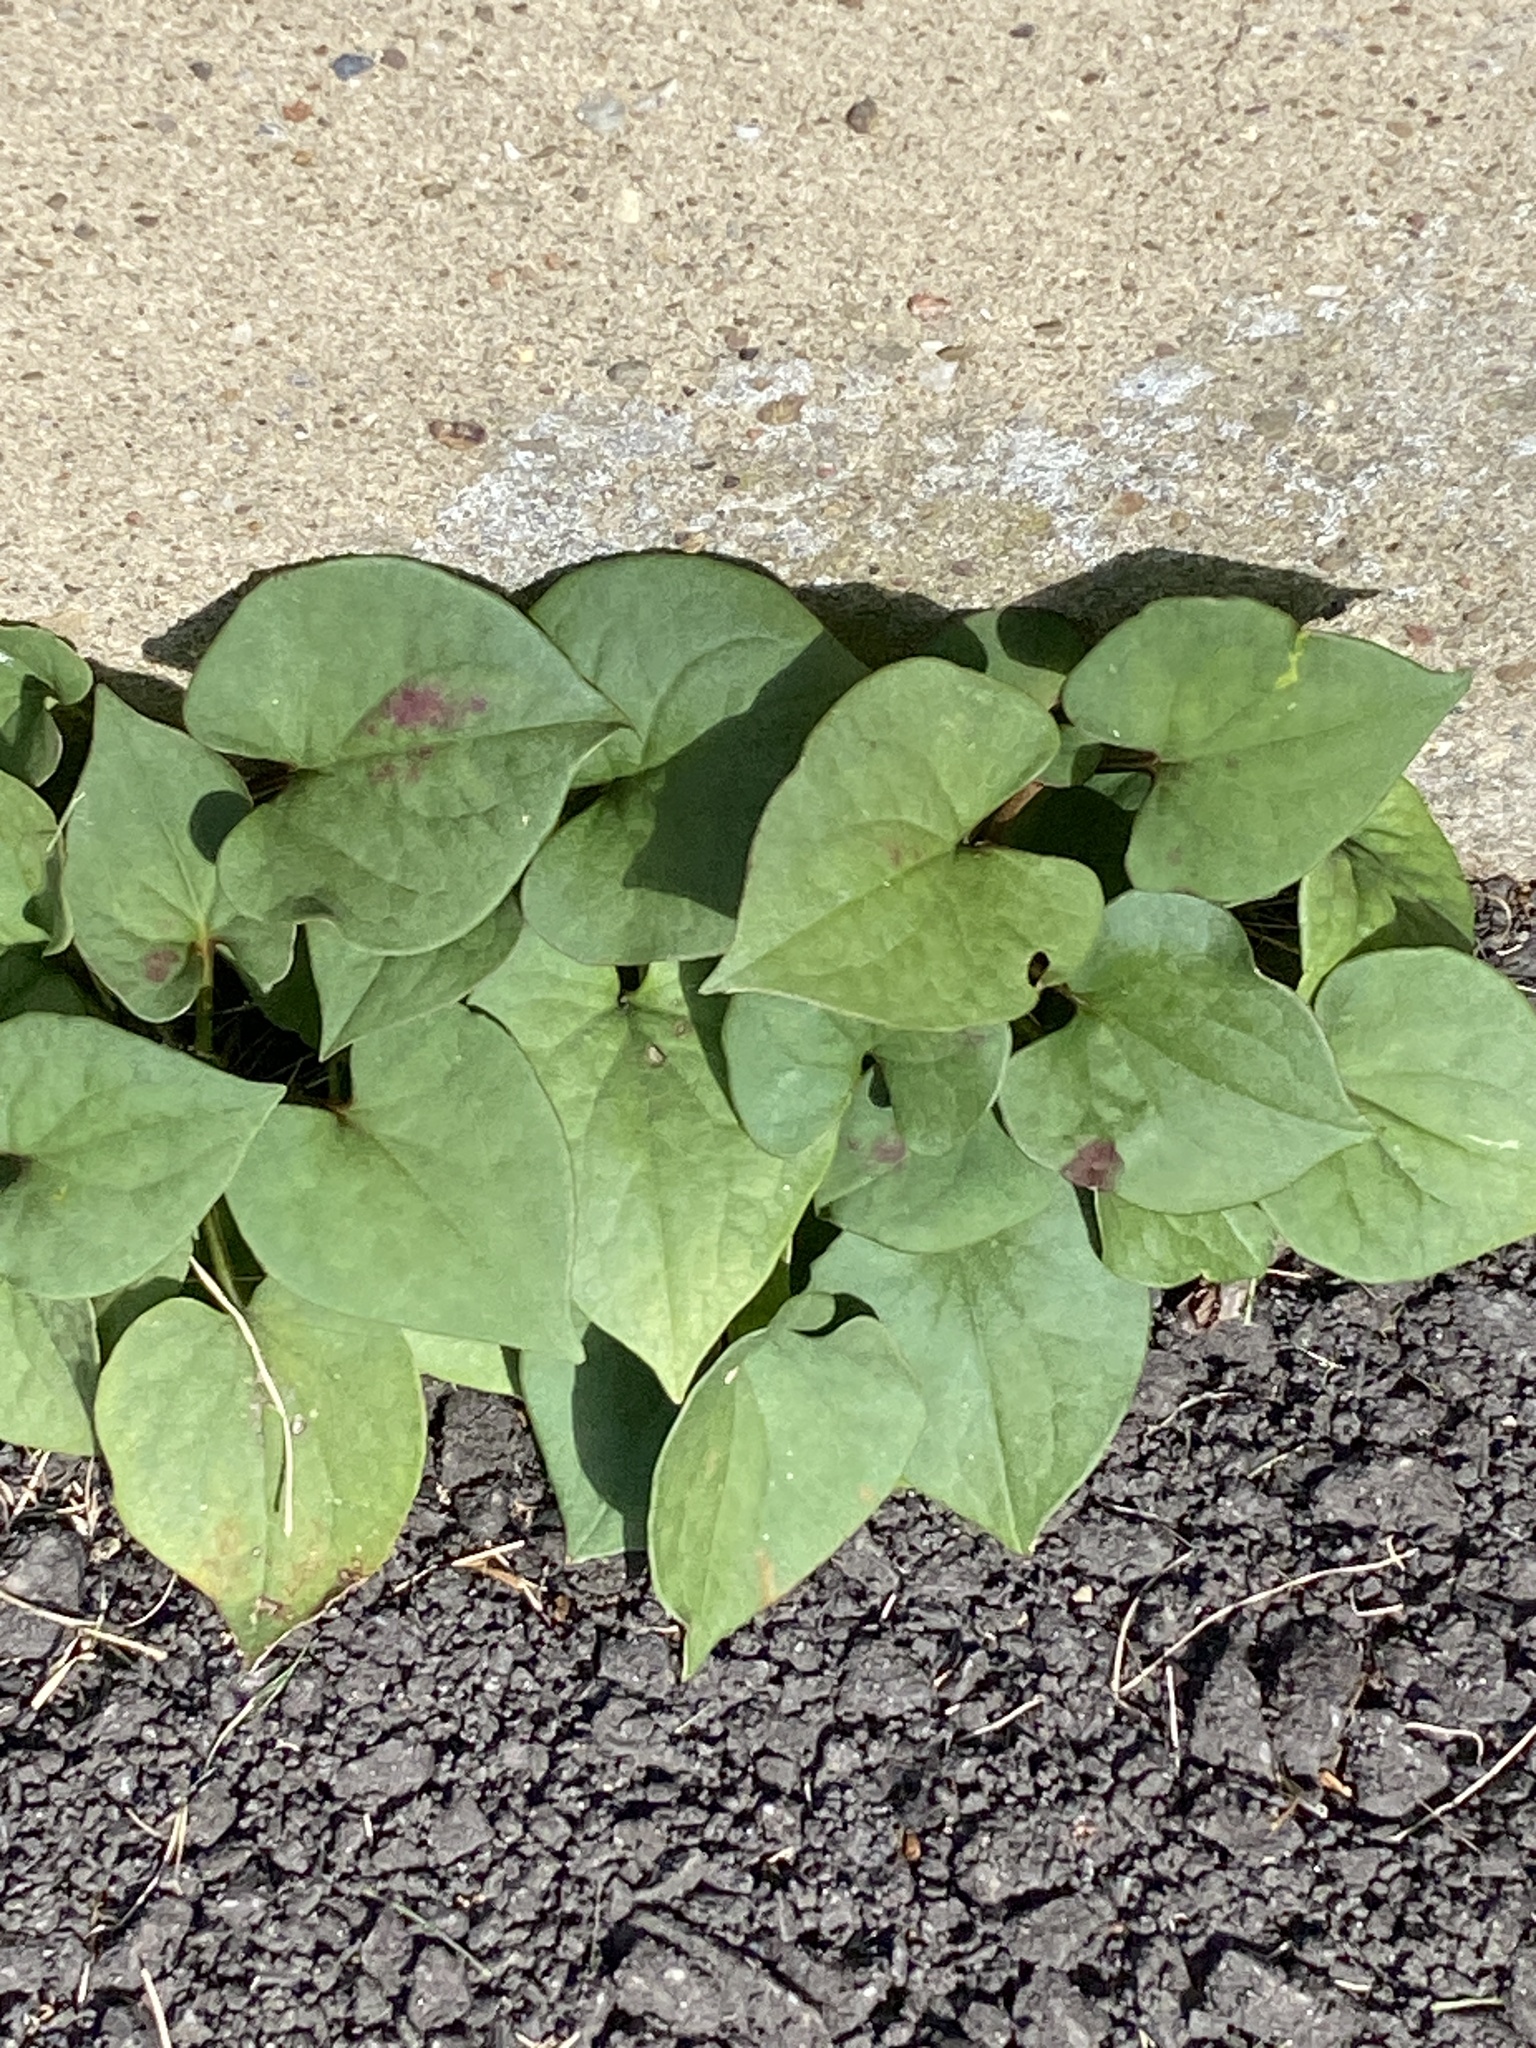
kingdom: Plantae
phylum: Tracheophyta
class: Magnoliopsida
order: Piperales
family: Saururaceae
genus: Houttuynia
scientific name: Houttuynia cordata
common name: Chameleon
